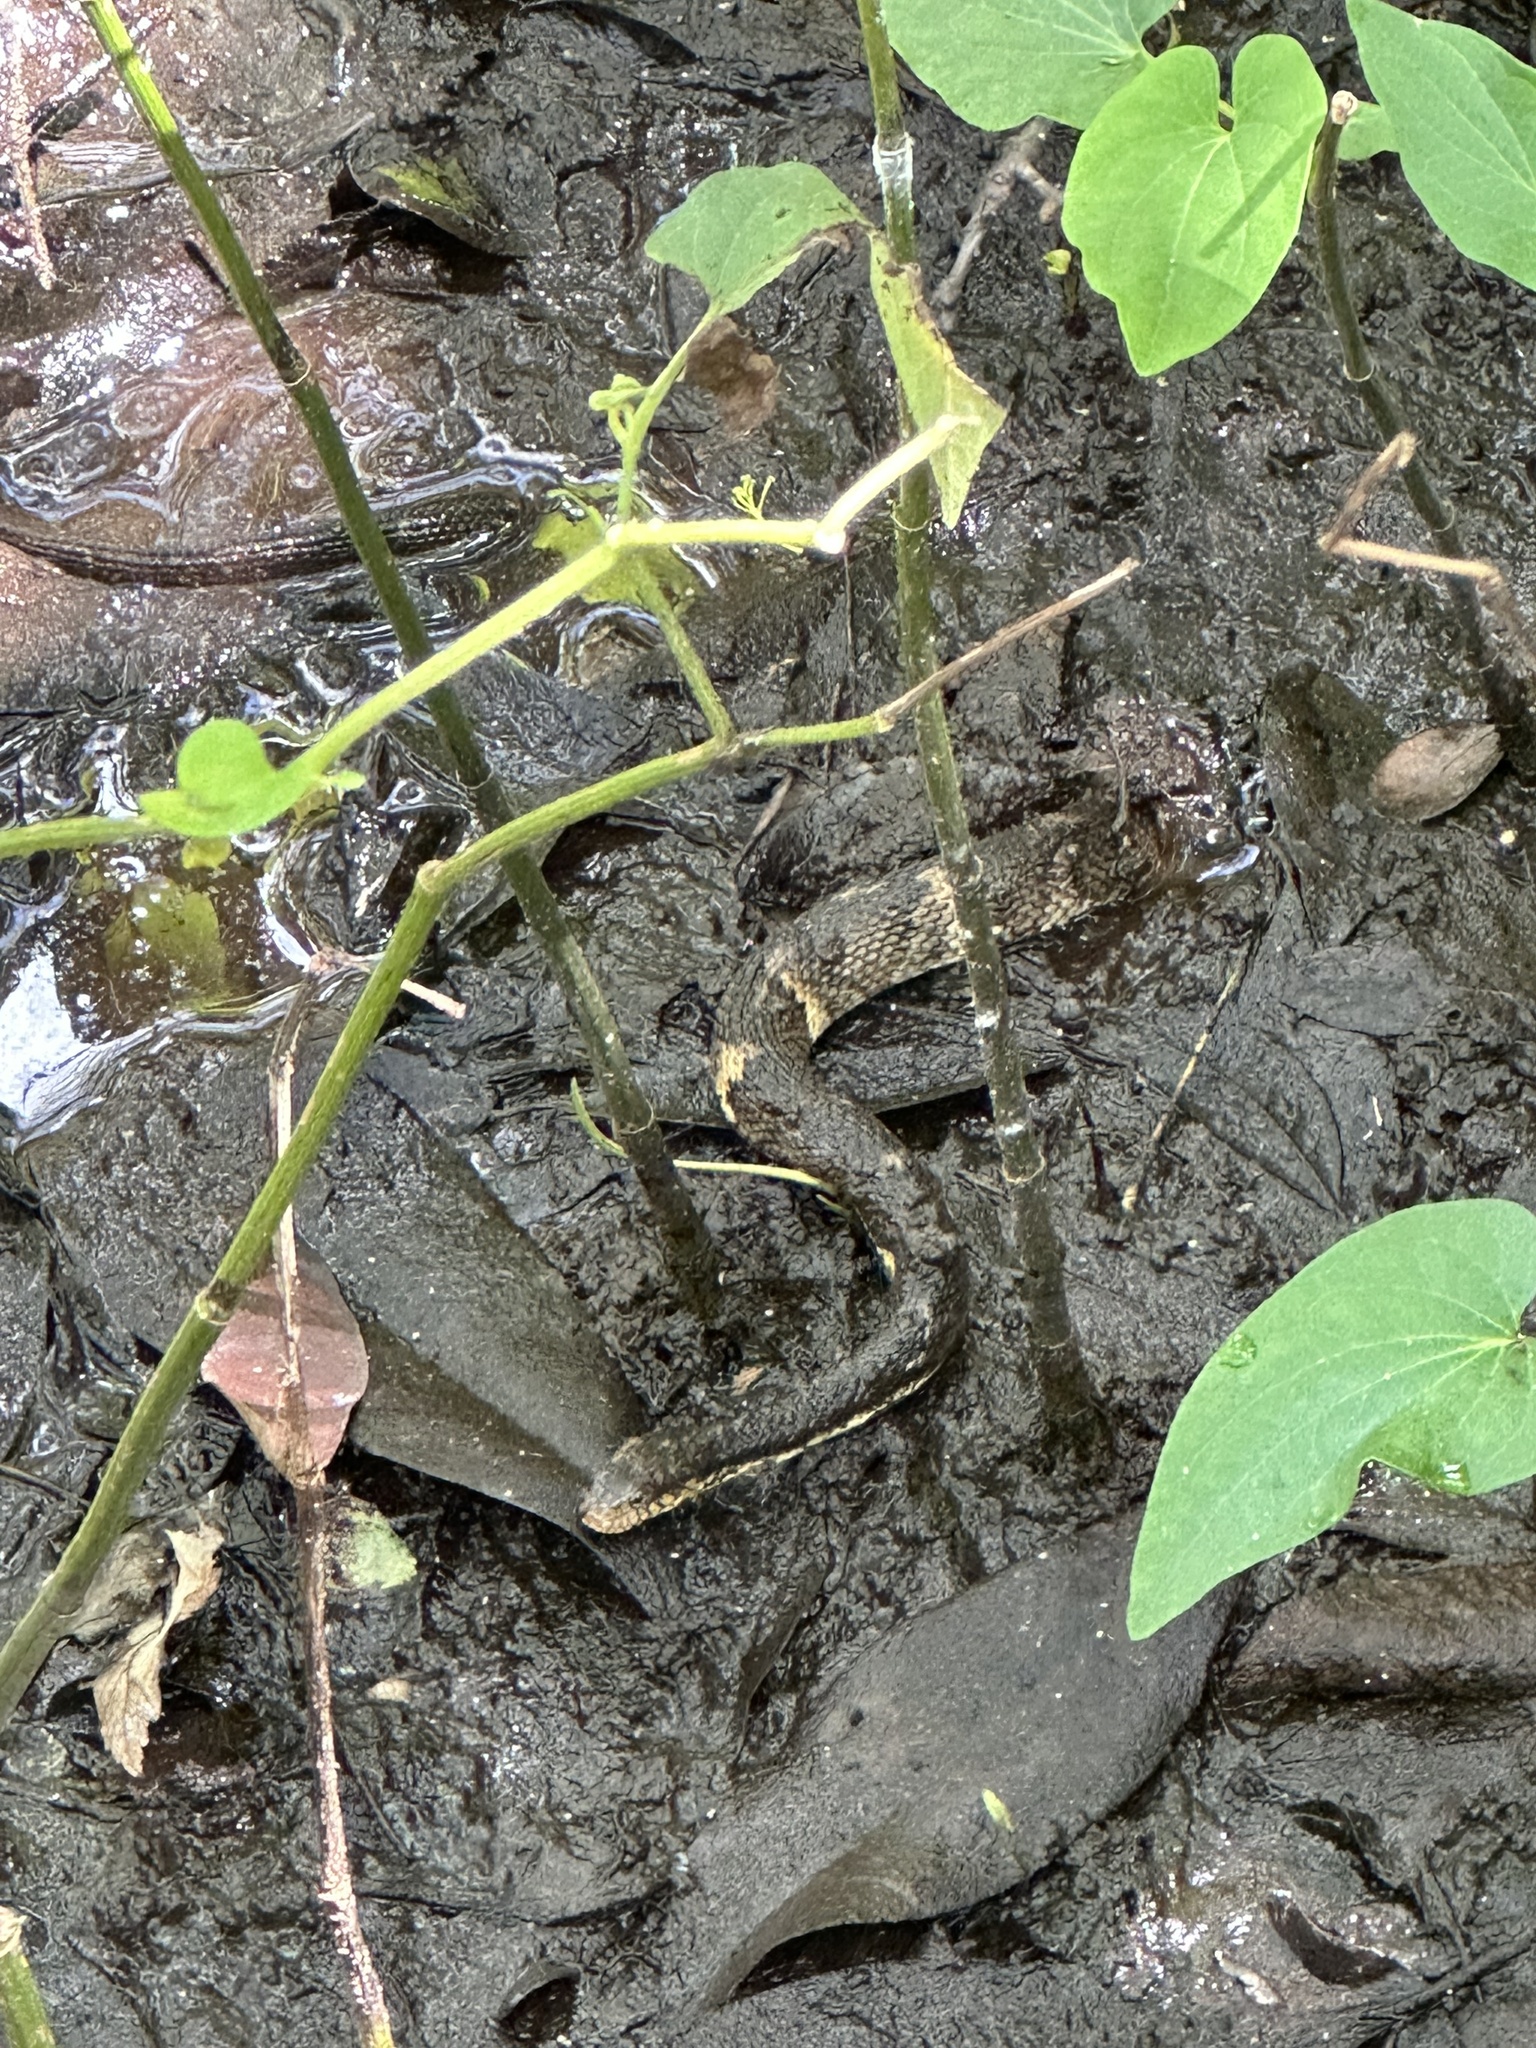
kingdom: Animalia
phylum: Chordata
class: Squamata
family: Colubridae
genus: Nerodia
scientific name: Nerodia fasciata
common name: Southern water snake
